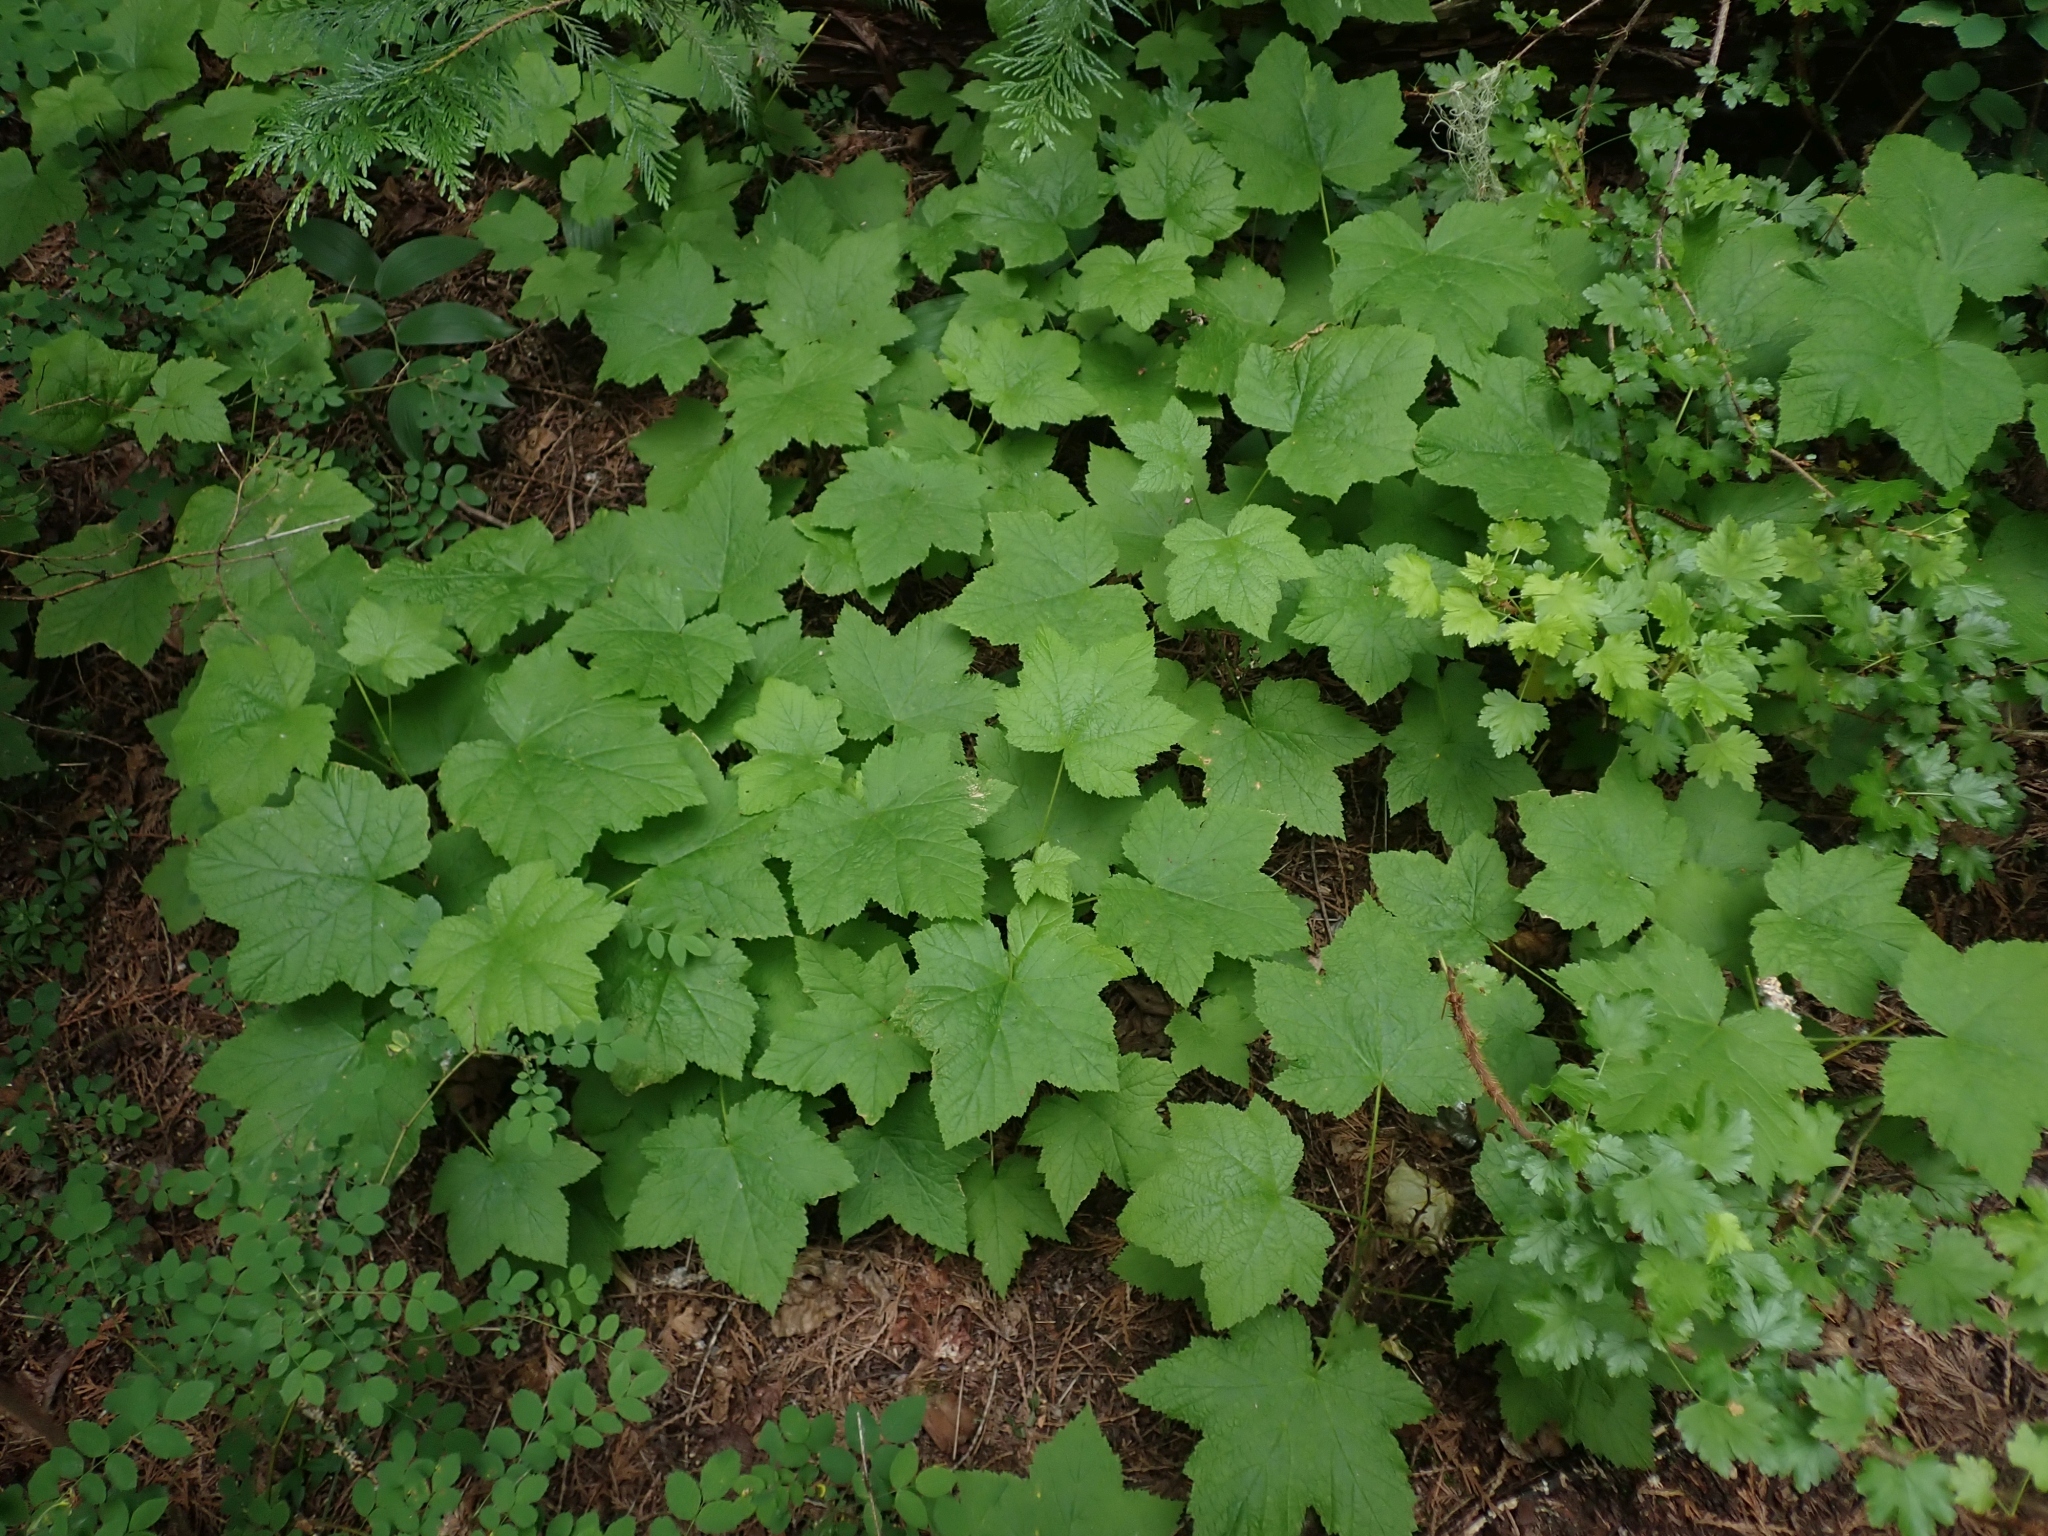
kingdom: Plantae
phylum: Tracheophyta
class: Magnoliopsida
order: Rosales
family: Rosaceae
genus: Rubus
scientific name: Rubus parviflorus
